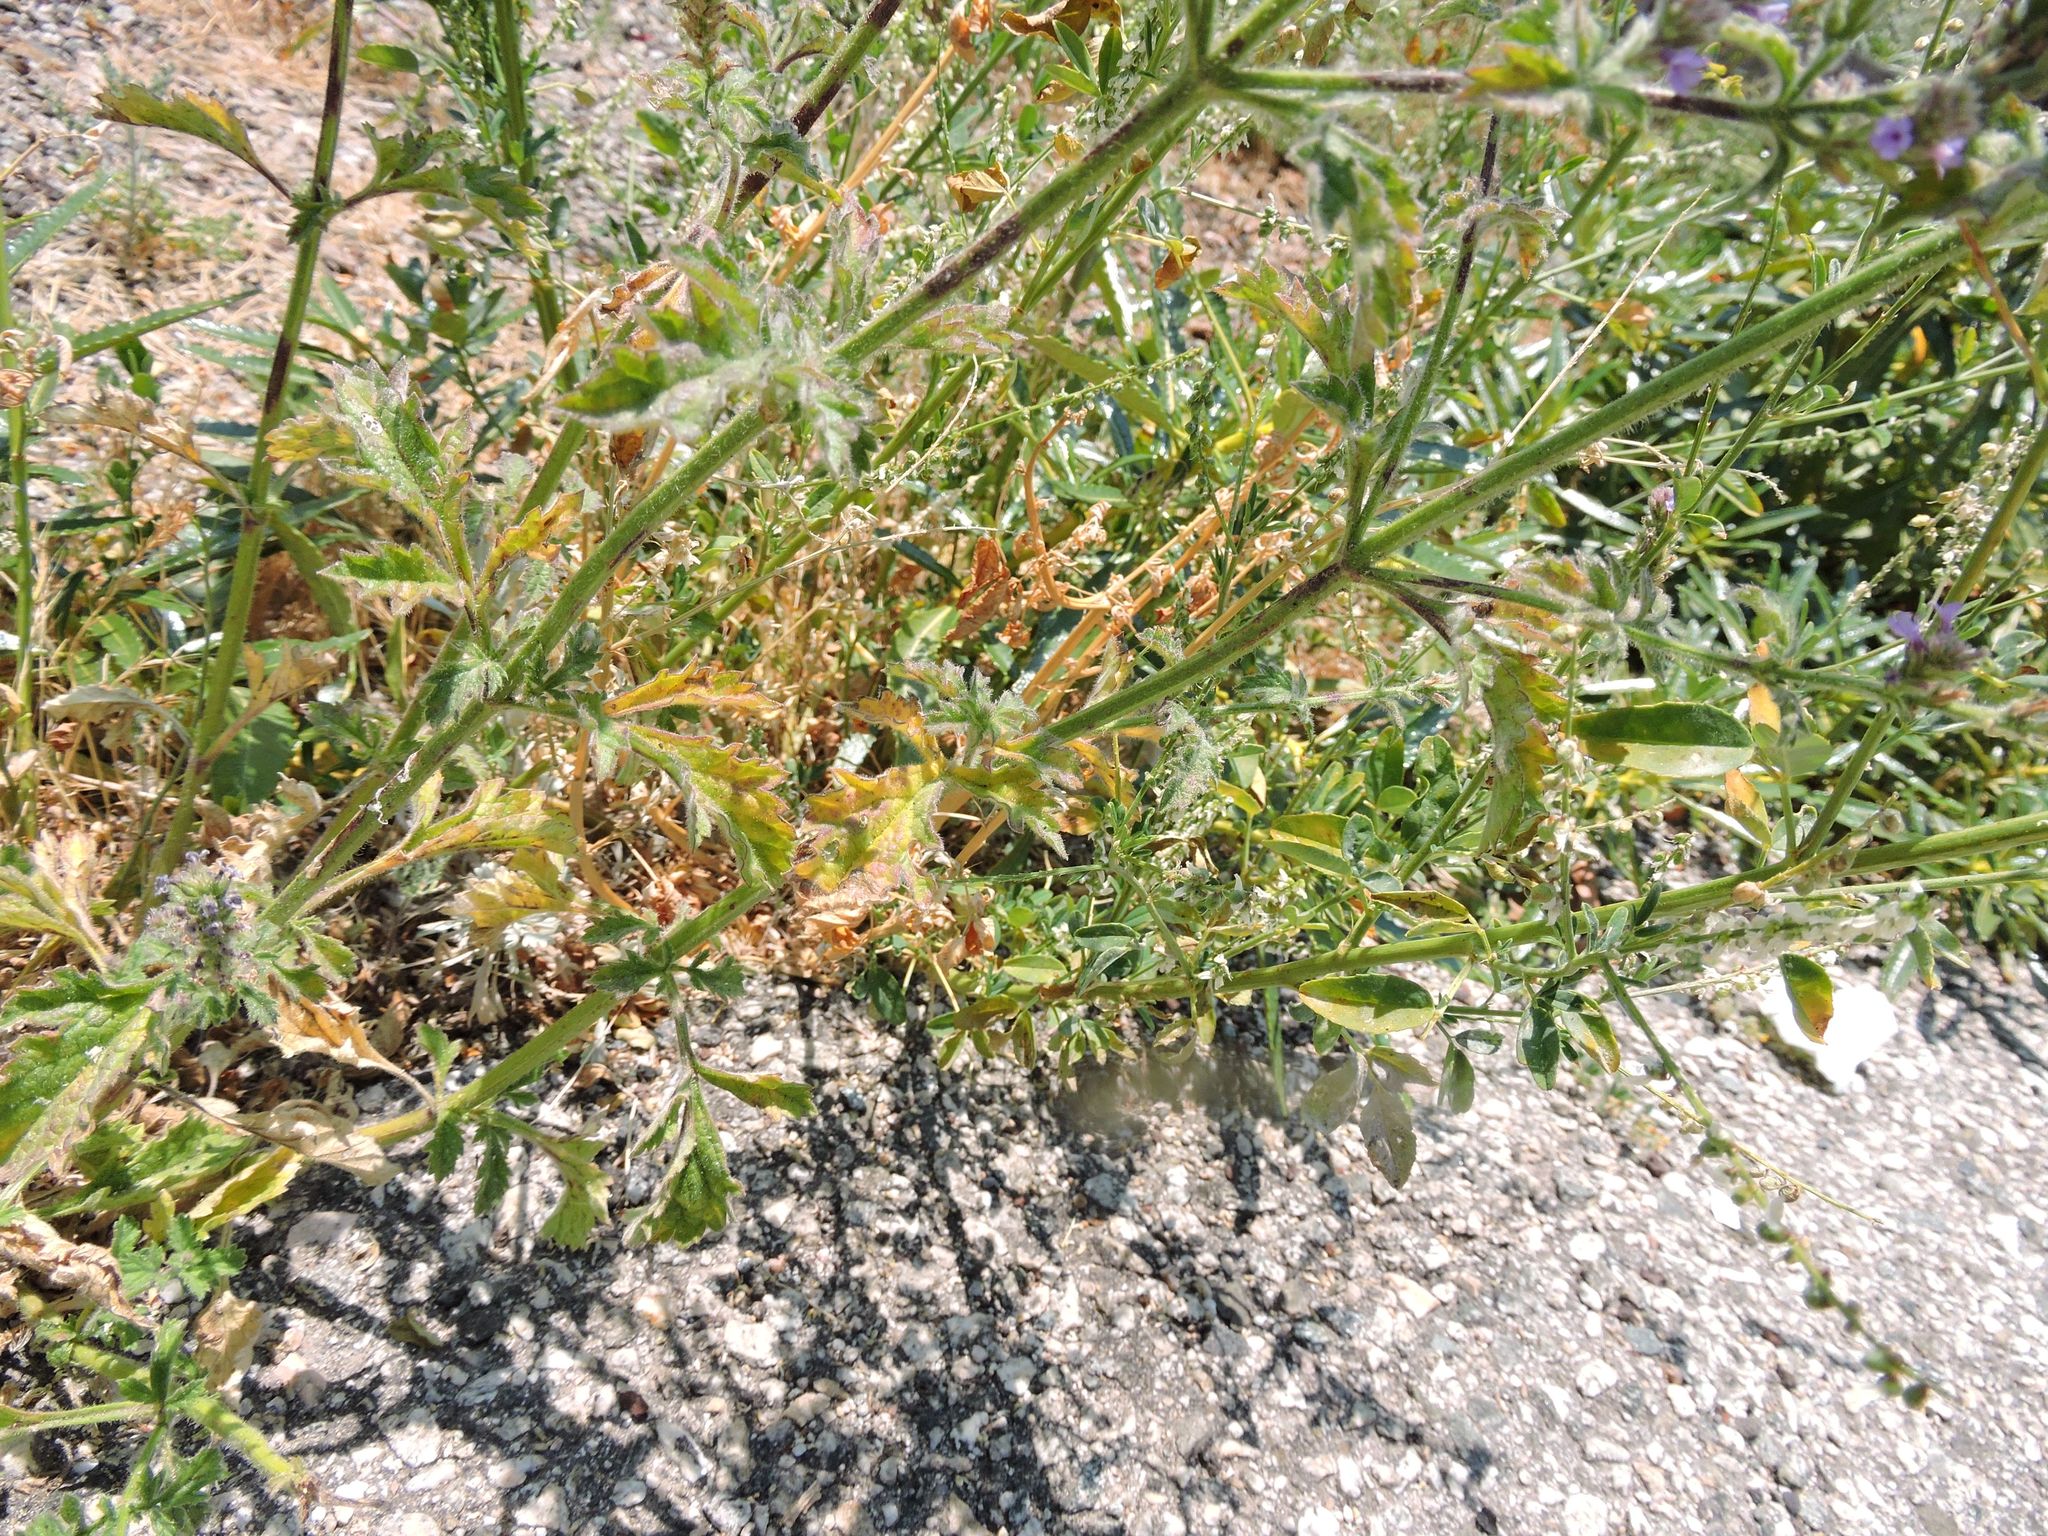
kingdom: Plantae
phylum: Tracheophyta
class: Magnoliopsida
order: Lamiales
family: Verbenaceae
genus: Verbena
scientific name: Verbena lasiostachys
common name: Vervain
